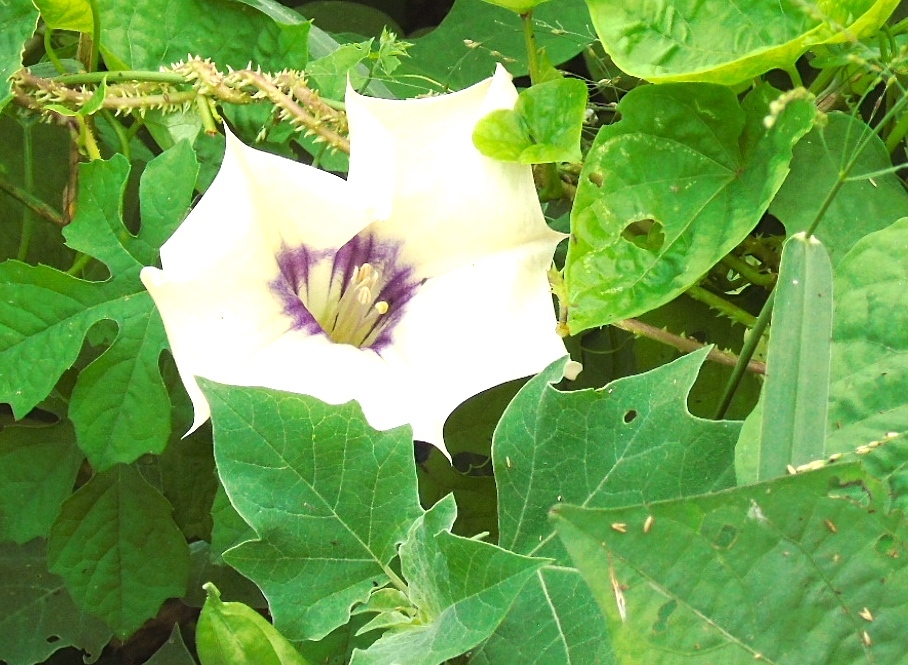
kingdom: Plantae
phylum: Tracheophyta
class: Magnoliopsida
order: Solanales
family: Solanaceae
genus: Datura
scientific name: Datura discolor
